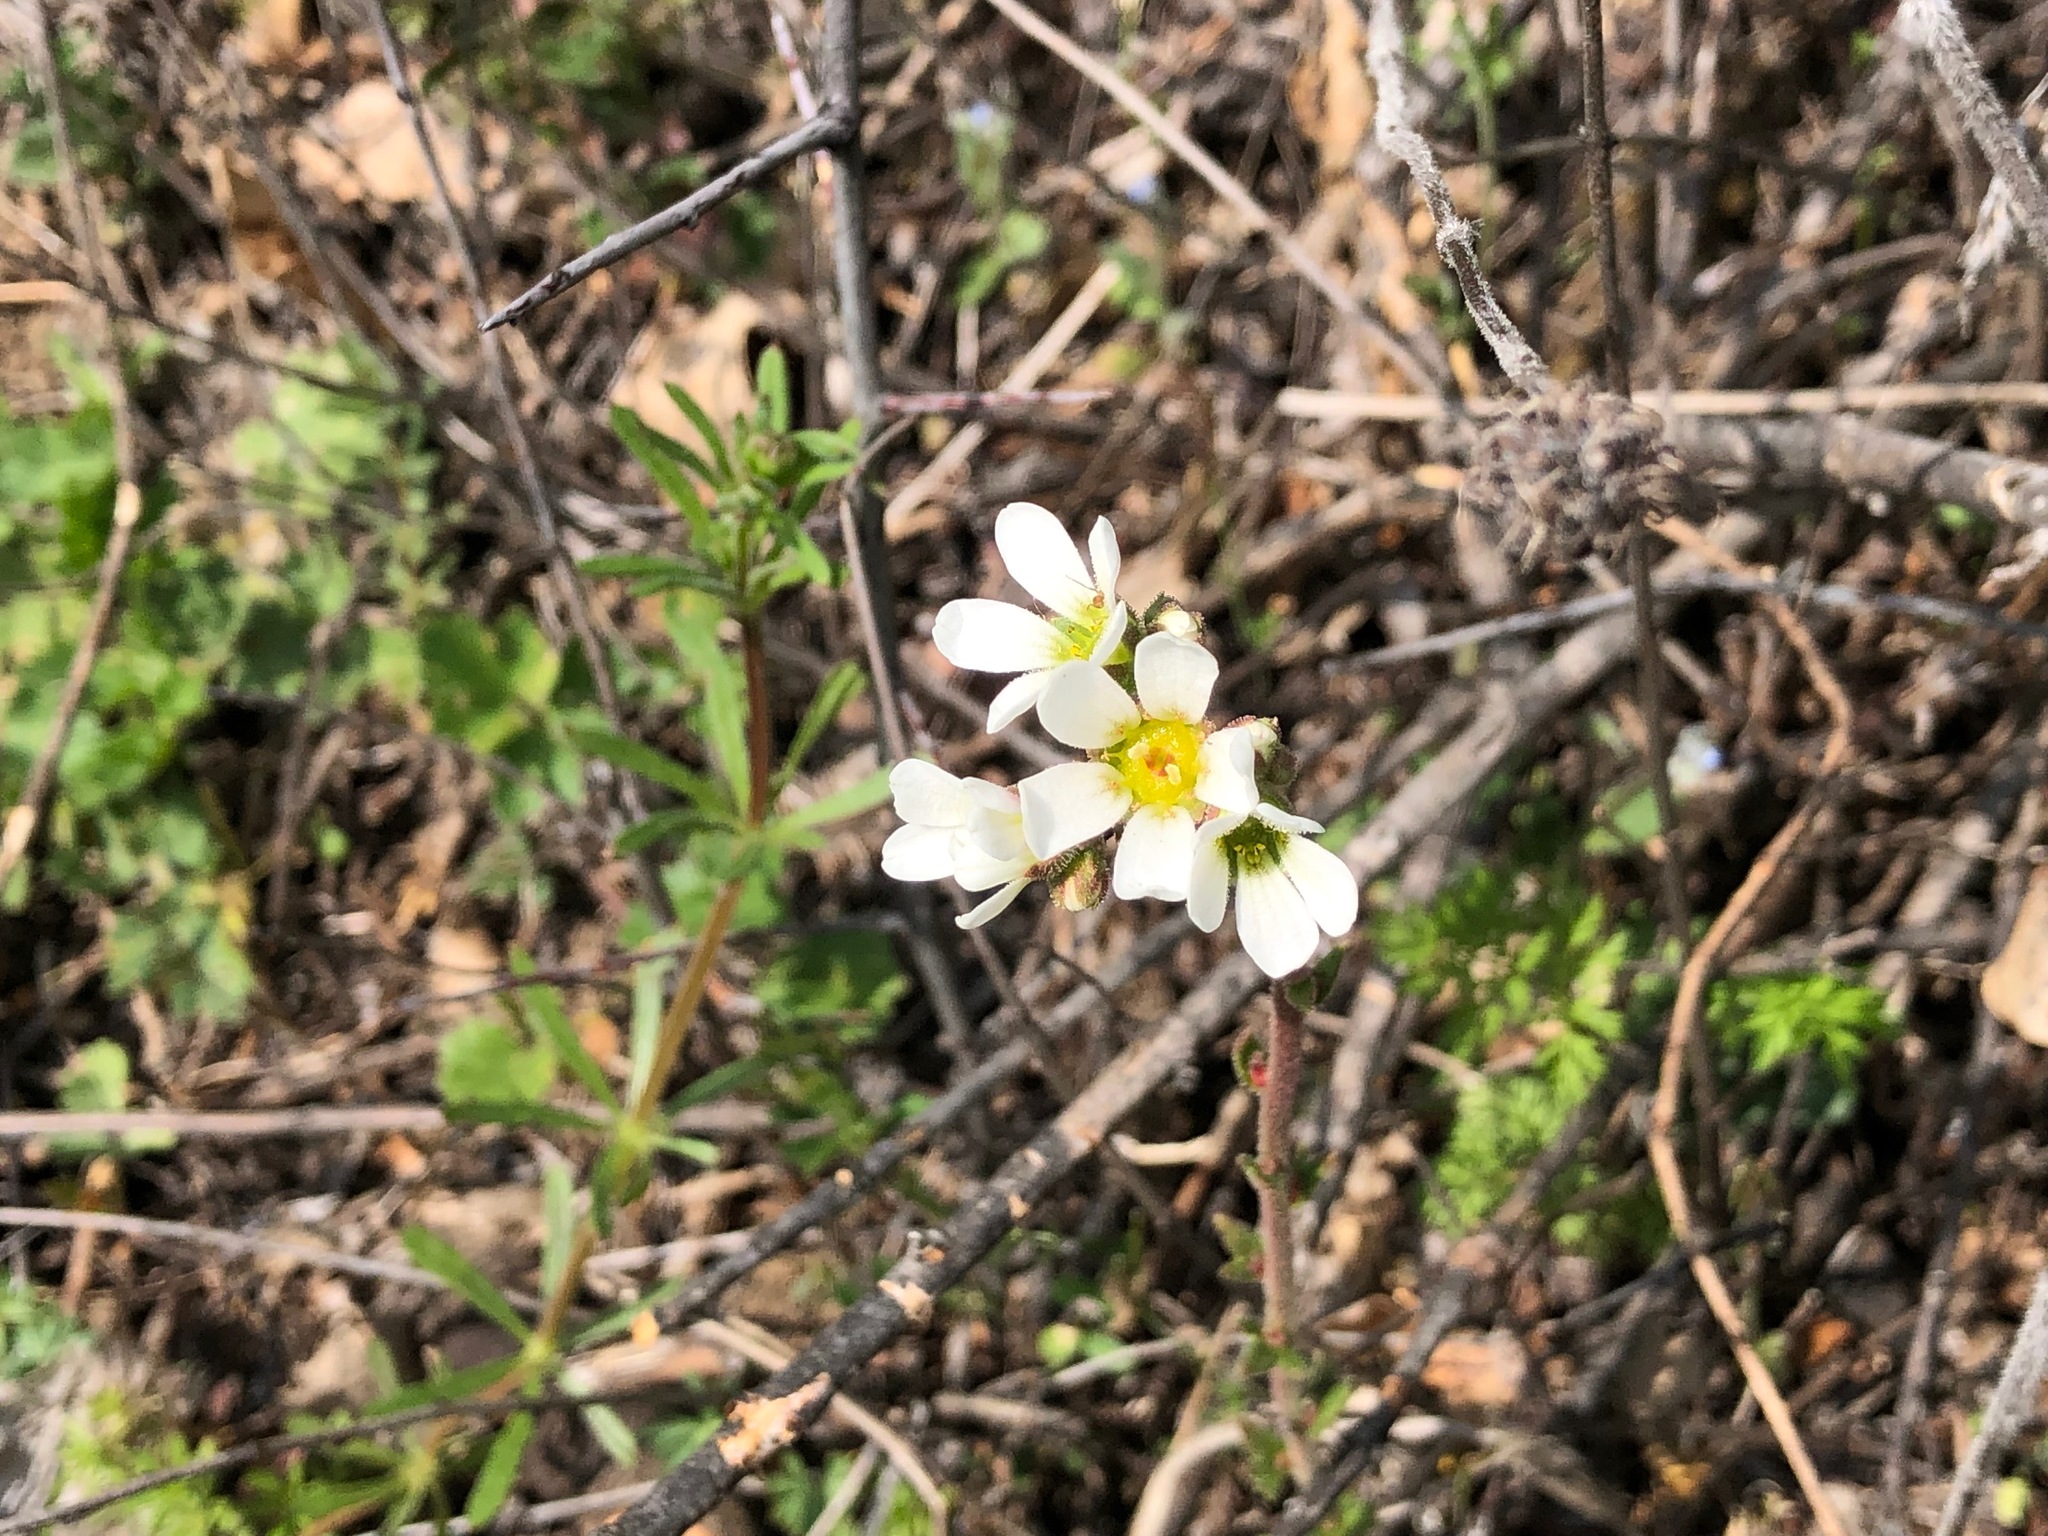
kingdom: Plantae
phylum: Tracheophyta
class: Magnoliopsida
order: Saxifragales
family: Saxifragaceae
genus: Saxifraga
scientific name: Saxifraga bulbifera
